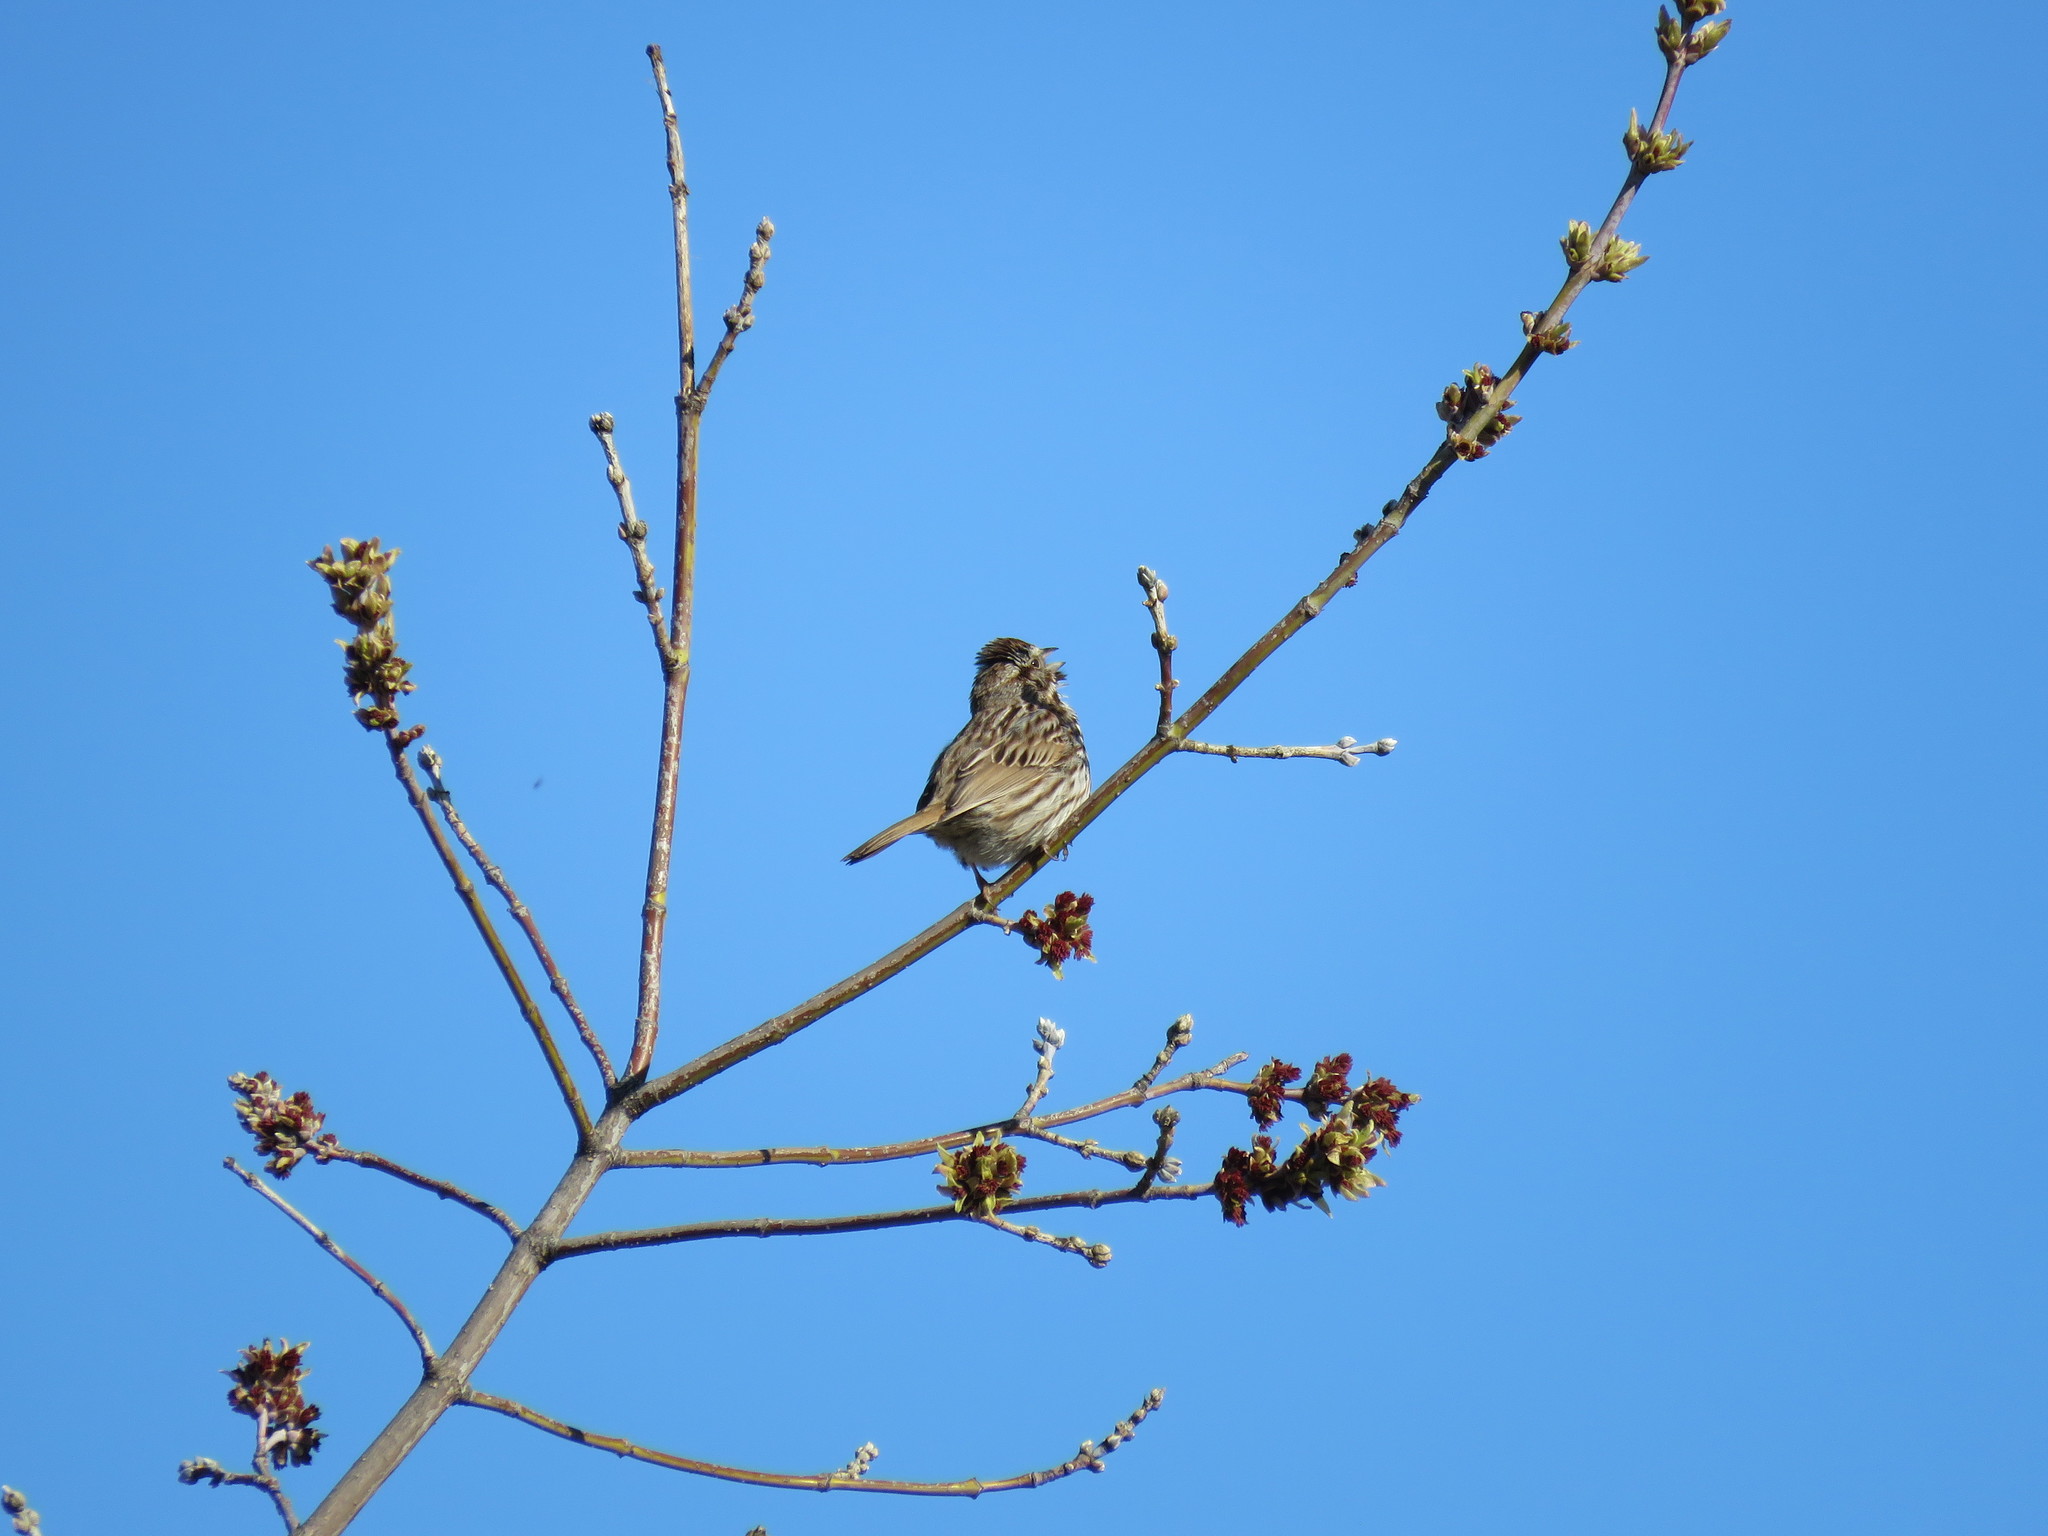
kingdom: Animalia
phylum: Chordata
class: Aves
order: Passeriformes
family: Passerellidae
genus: Melospiza
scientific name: Melospiza melodia
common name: Song sparrow
